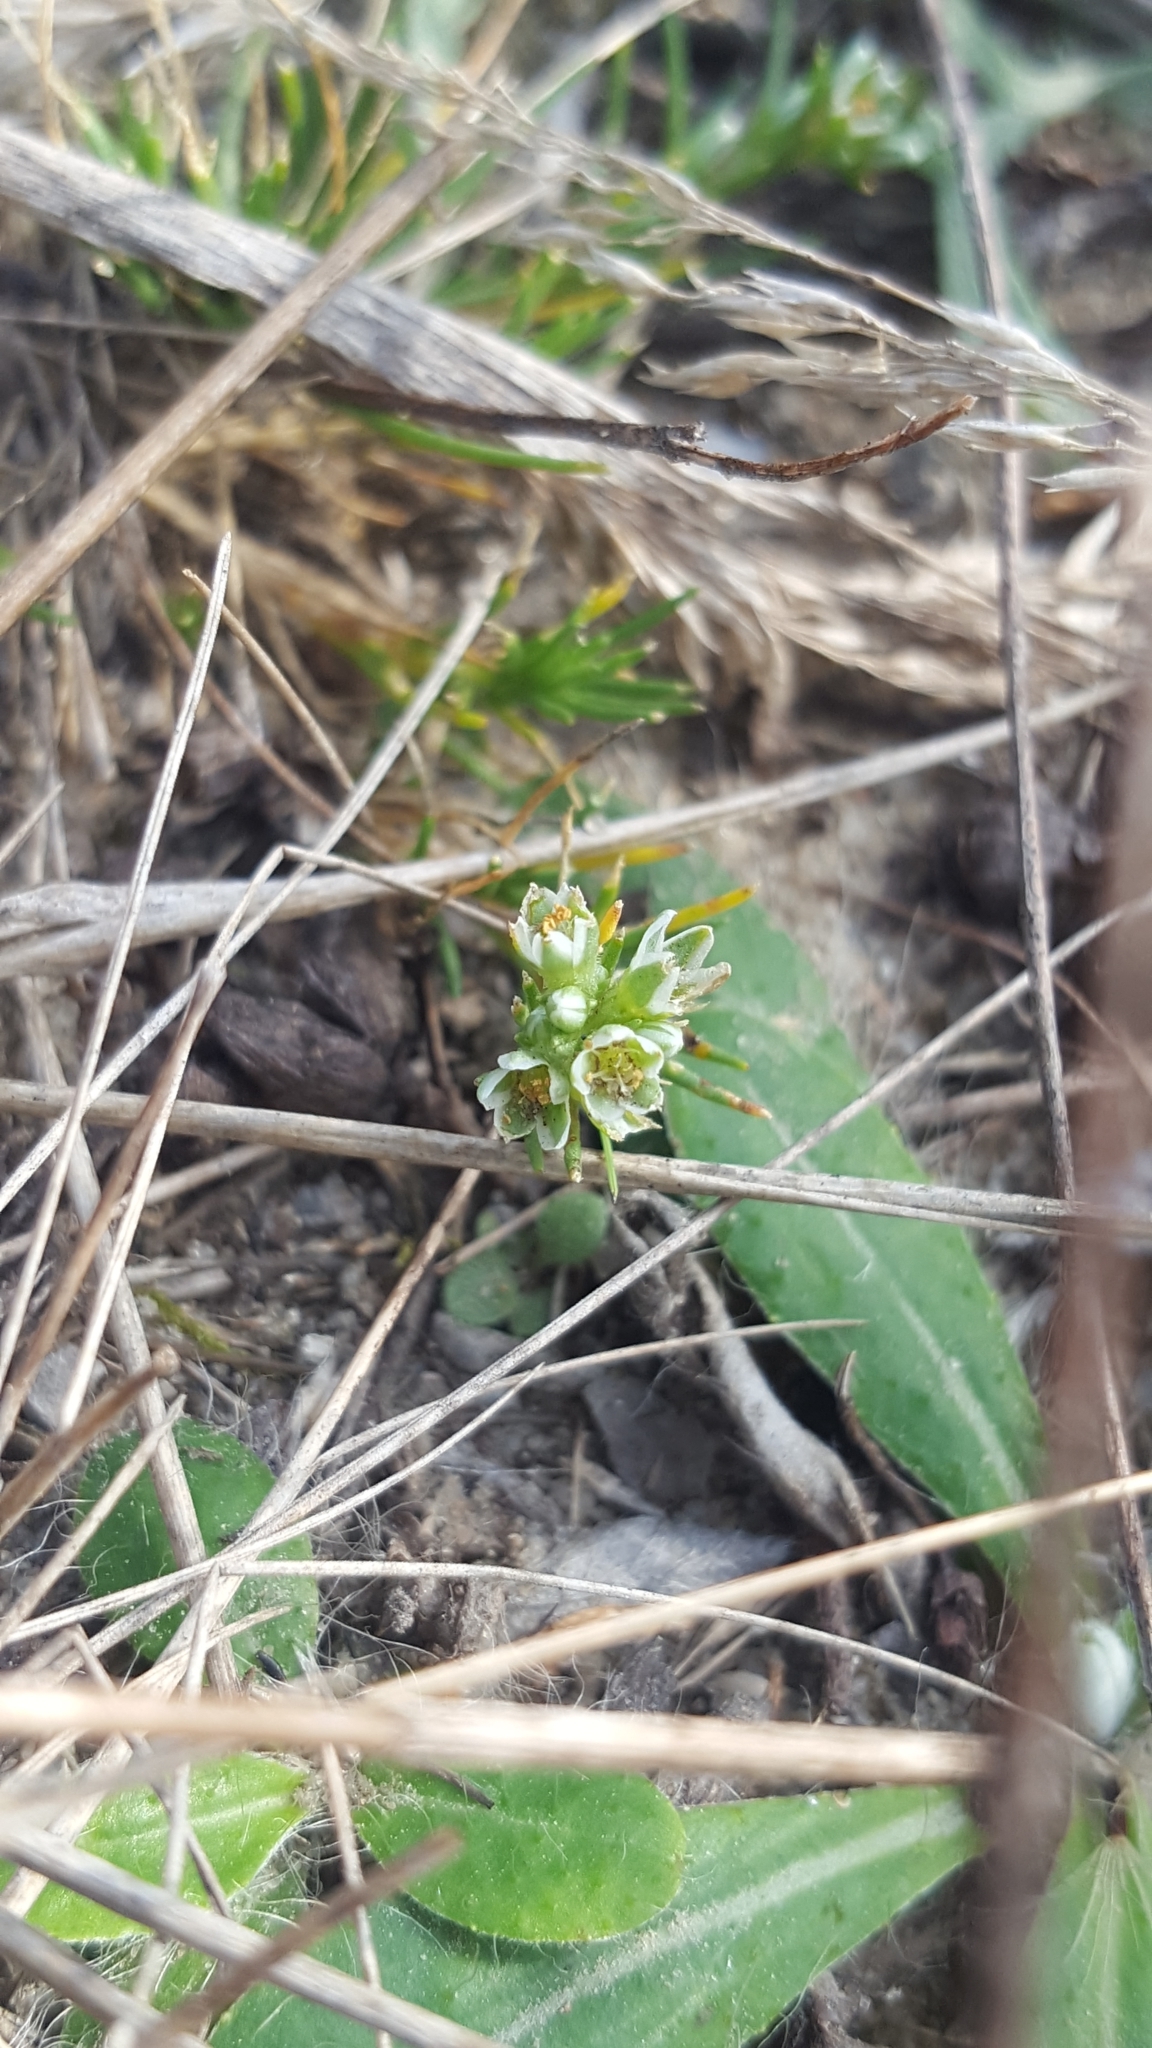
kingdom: Plantae
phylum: Tracheophyta
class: Magnoliopsida
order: Caryophyllales
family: Caryophyllaceae
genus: Scleranthus
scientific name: Scleranthus perennis
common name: Perennial knawel
